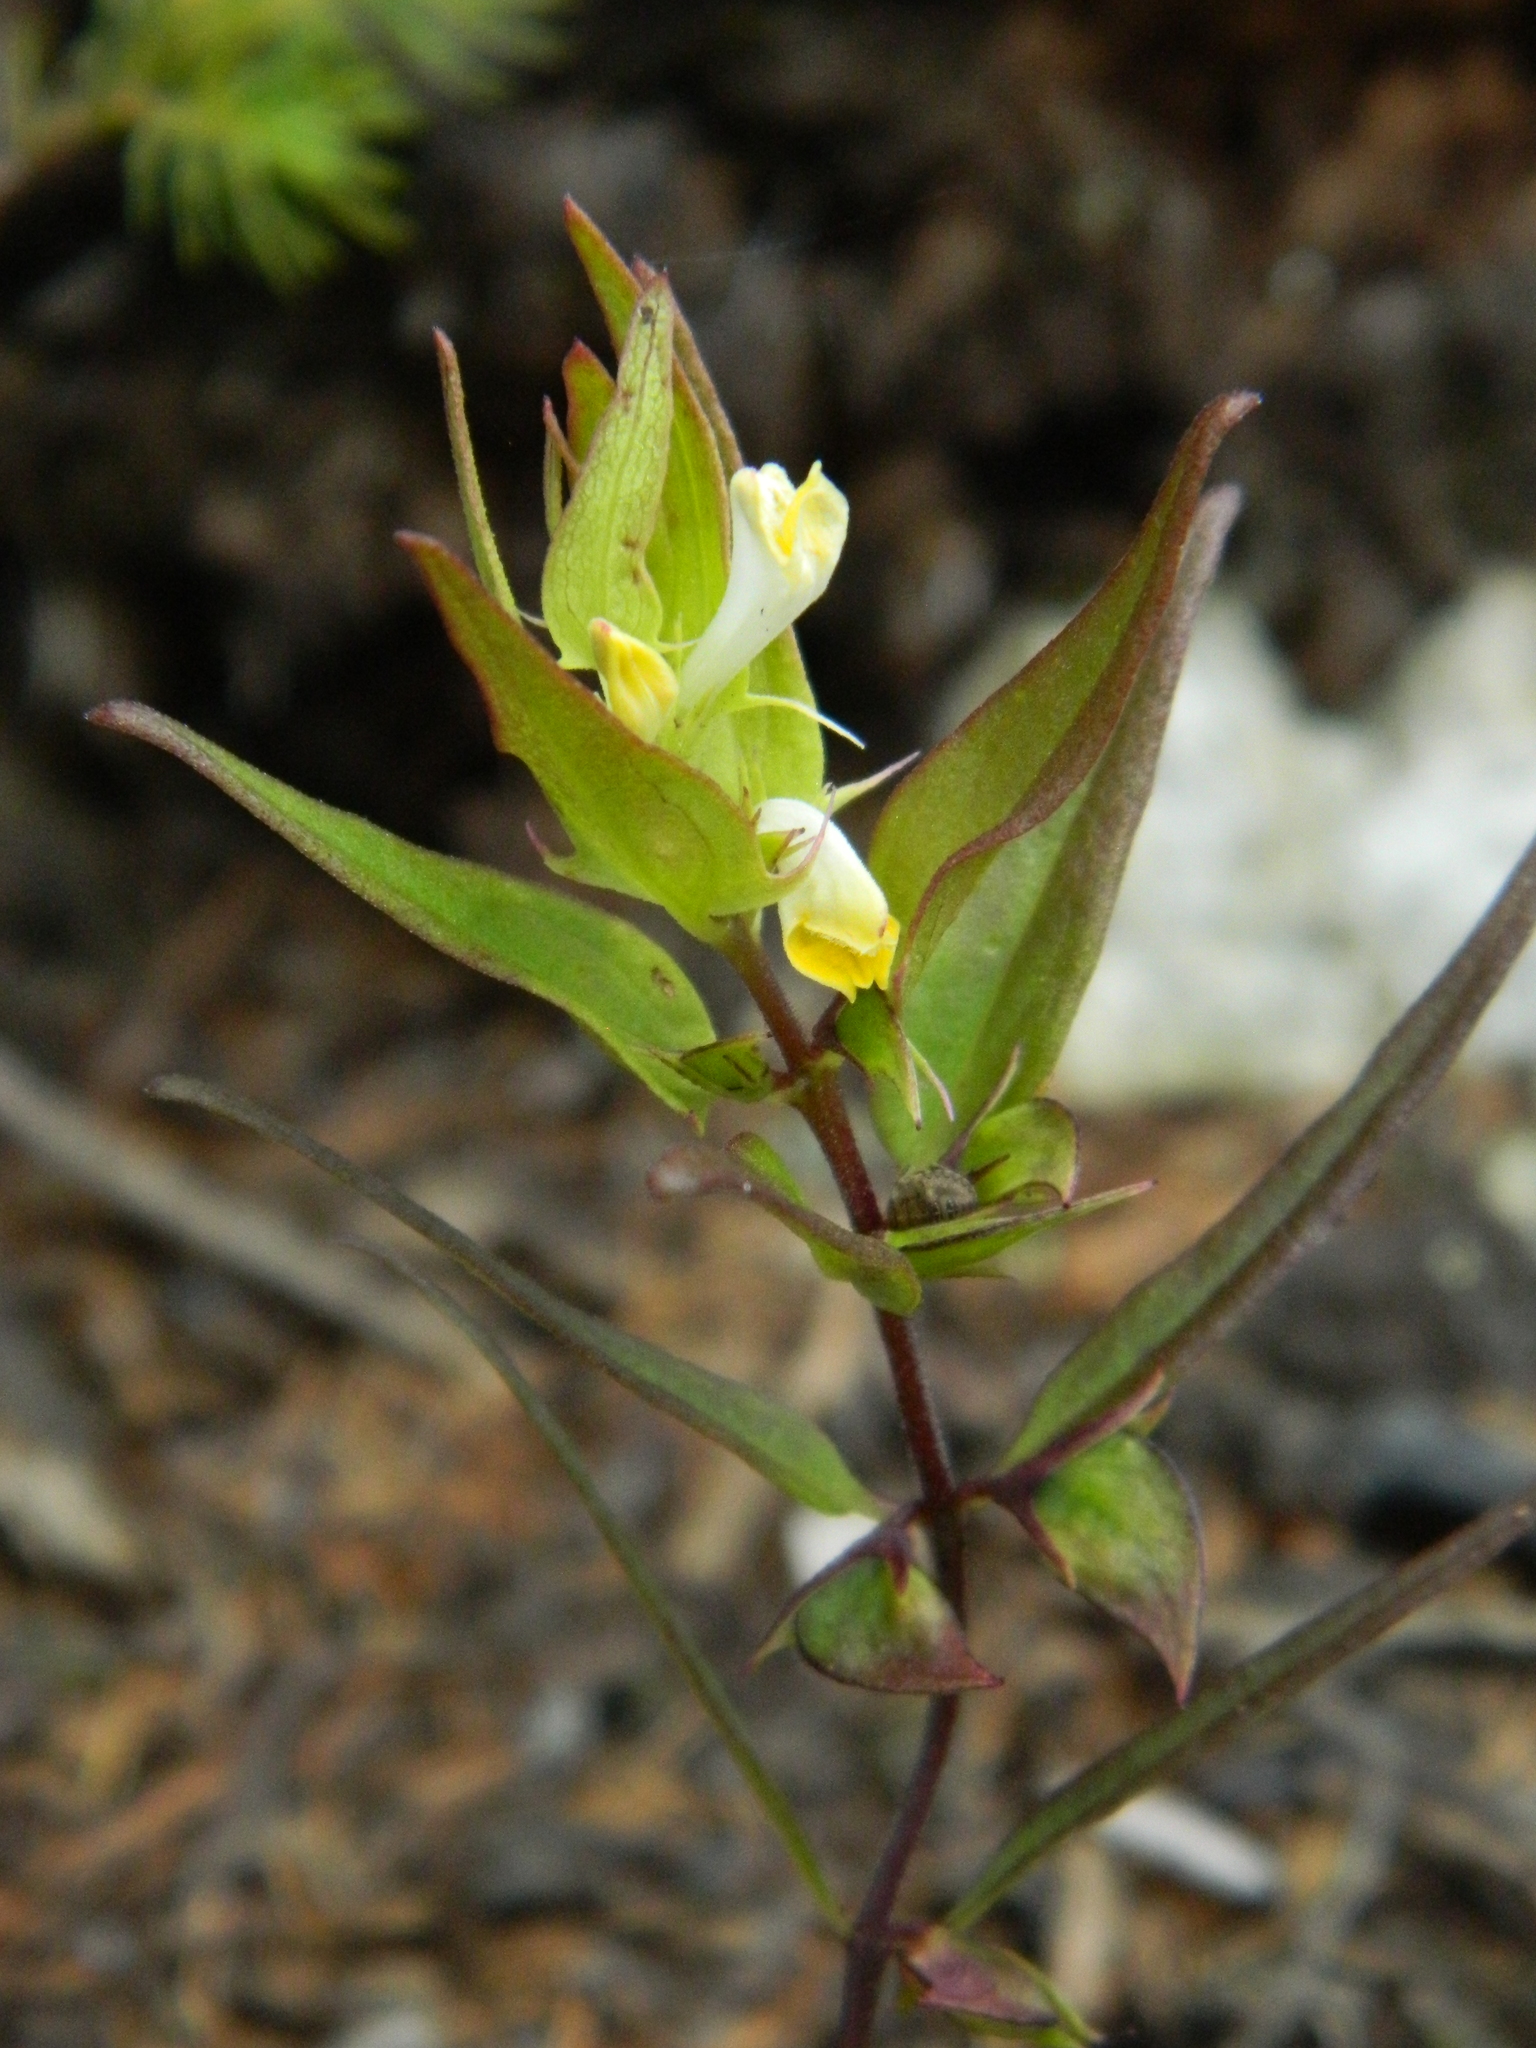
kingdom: Plantae
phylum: Tracheophyta
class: Magnoliopsida
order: Lamiales
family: Orobanchaceae
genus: Melampyrum
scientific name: Melampyrum lineare
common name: American cow-wheat
